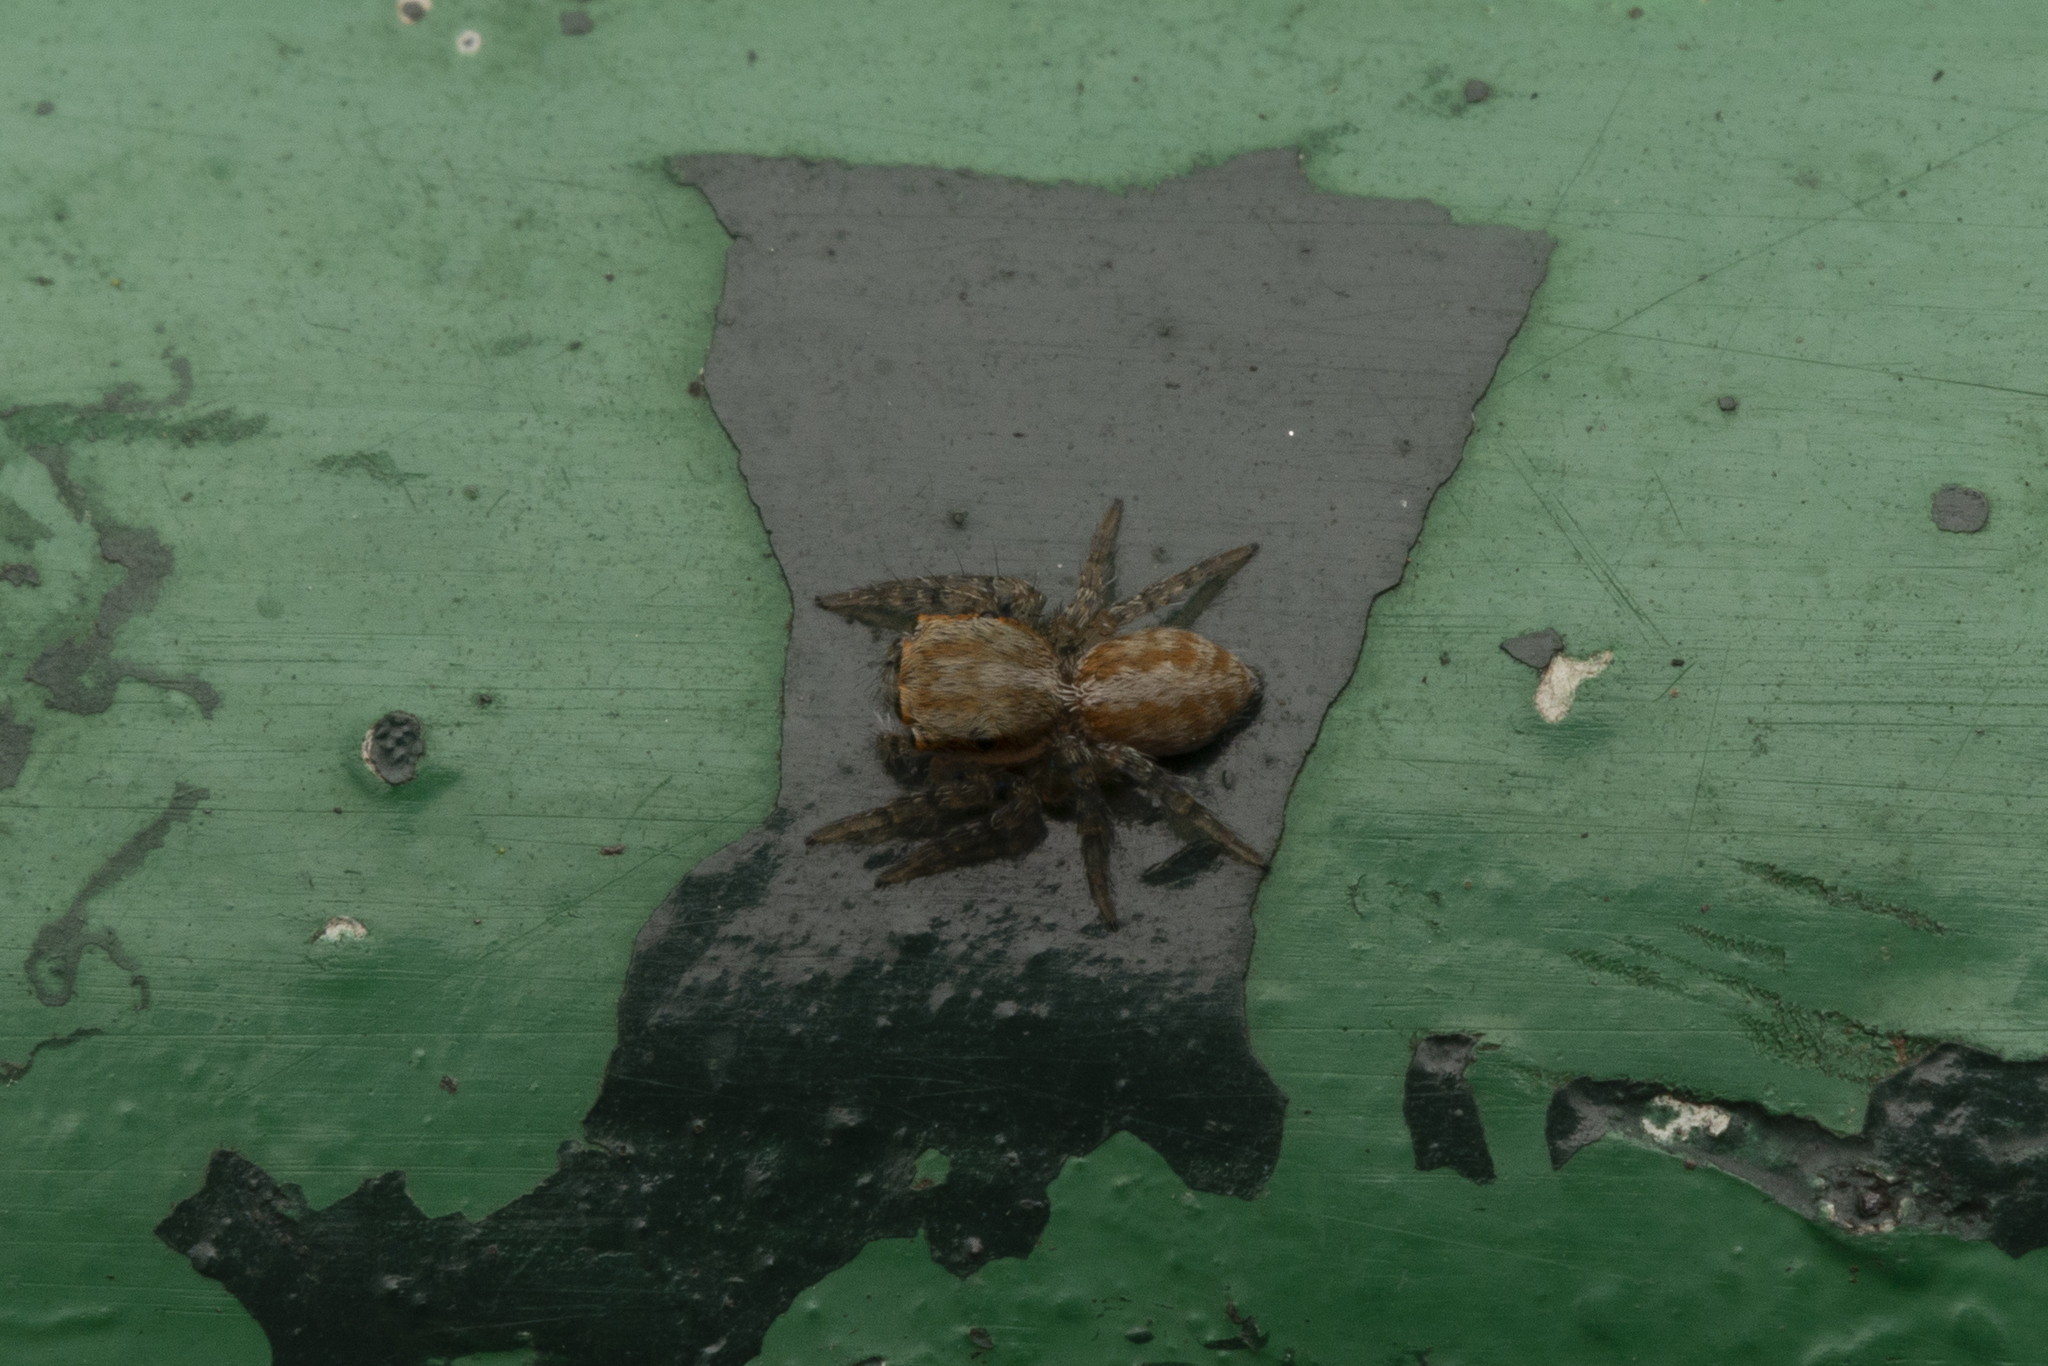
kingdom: Animalia
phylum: Arthropoda
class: Arachnida
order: Araneae
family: Salticidae
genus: Cytaea
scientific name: Cytaea maoming
